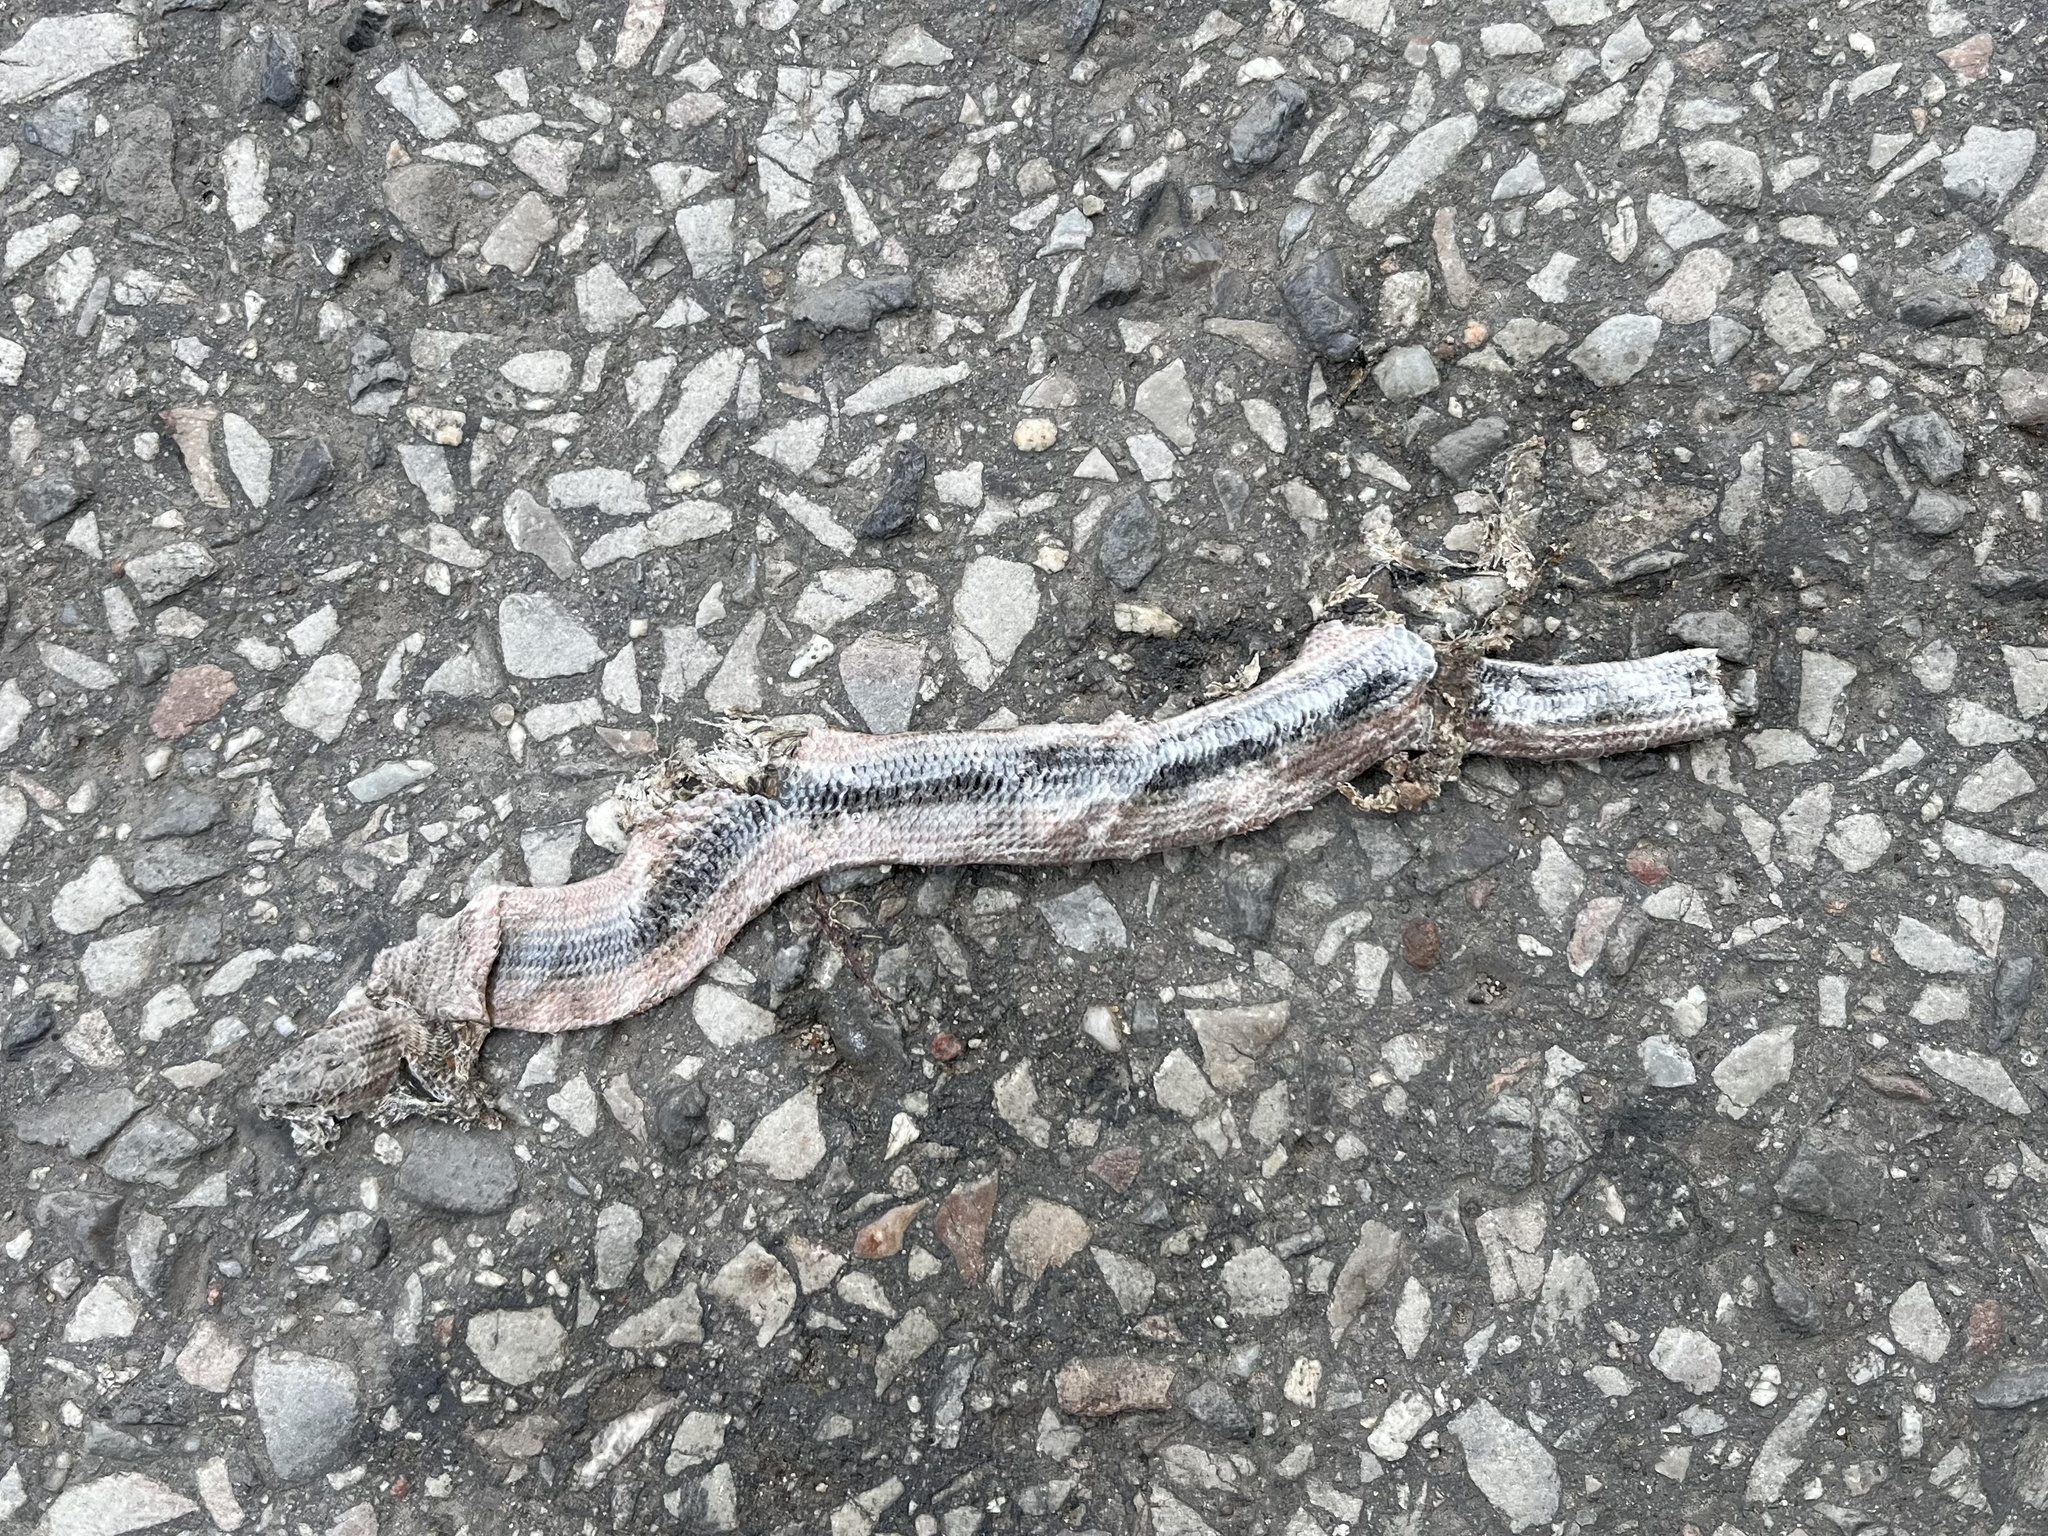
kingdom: Animalia
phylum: Chordata
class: Squamata
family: Anguidae
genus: Anguis
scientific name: Anguis fragilis
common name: Slow worm
